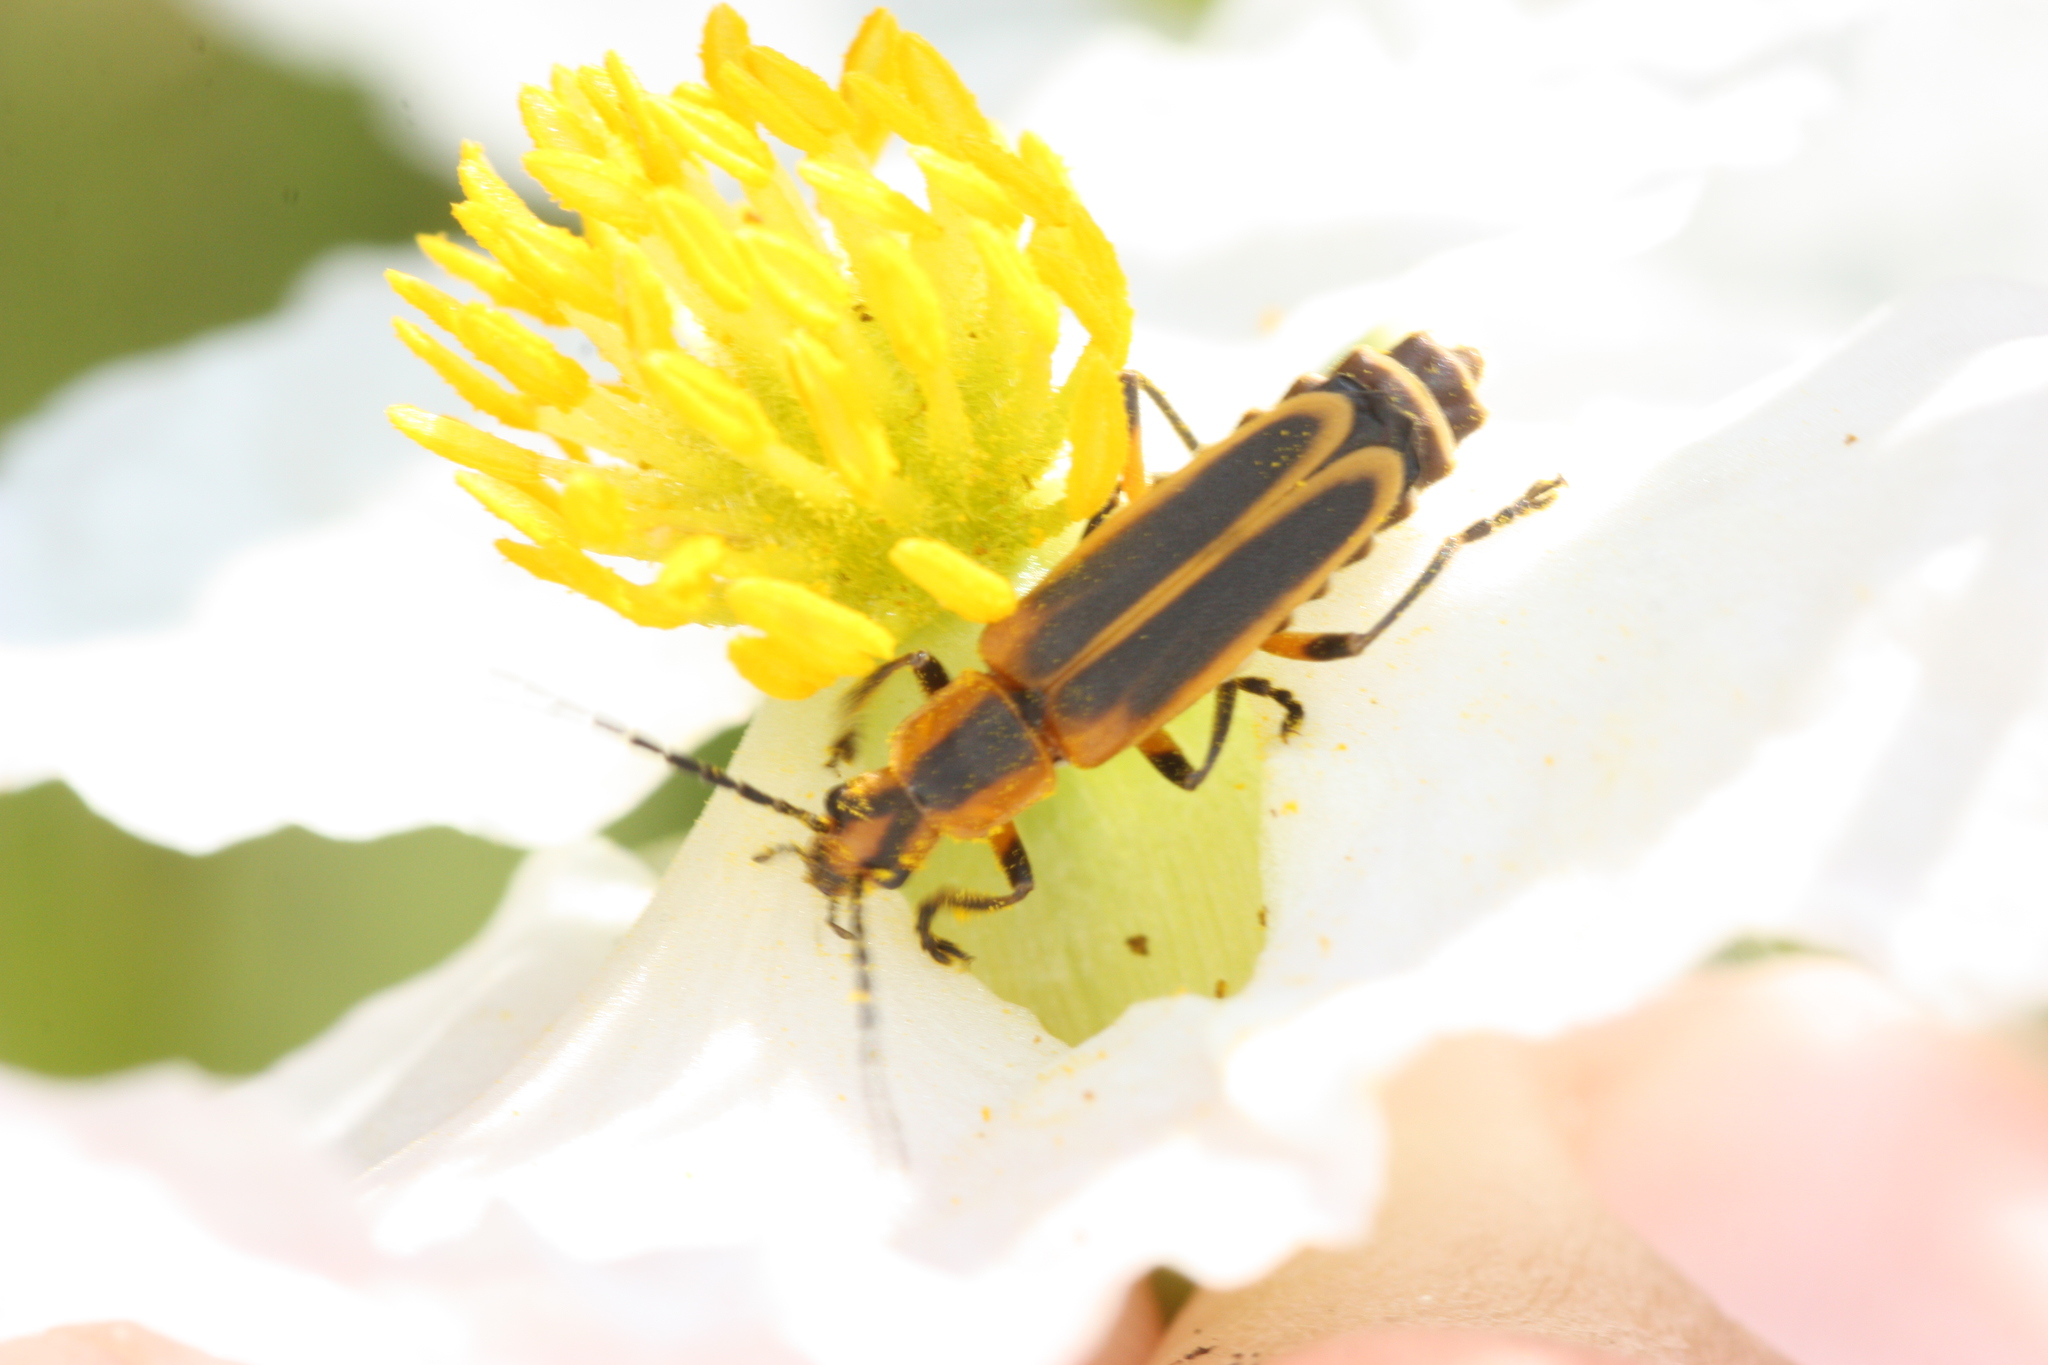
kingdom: Animalia
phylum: Arthropoda
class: Insecta
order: Coleoptera
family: Cantharidae
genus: Chauliognathus
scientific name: Chauliognathus marginatus
